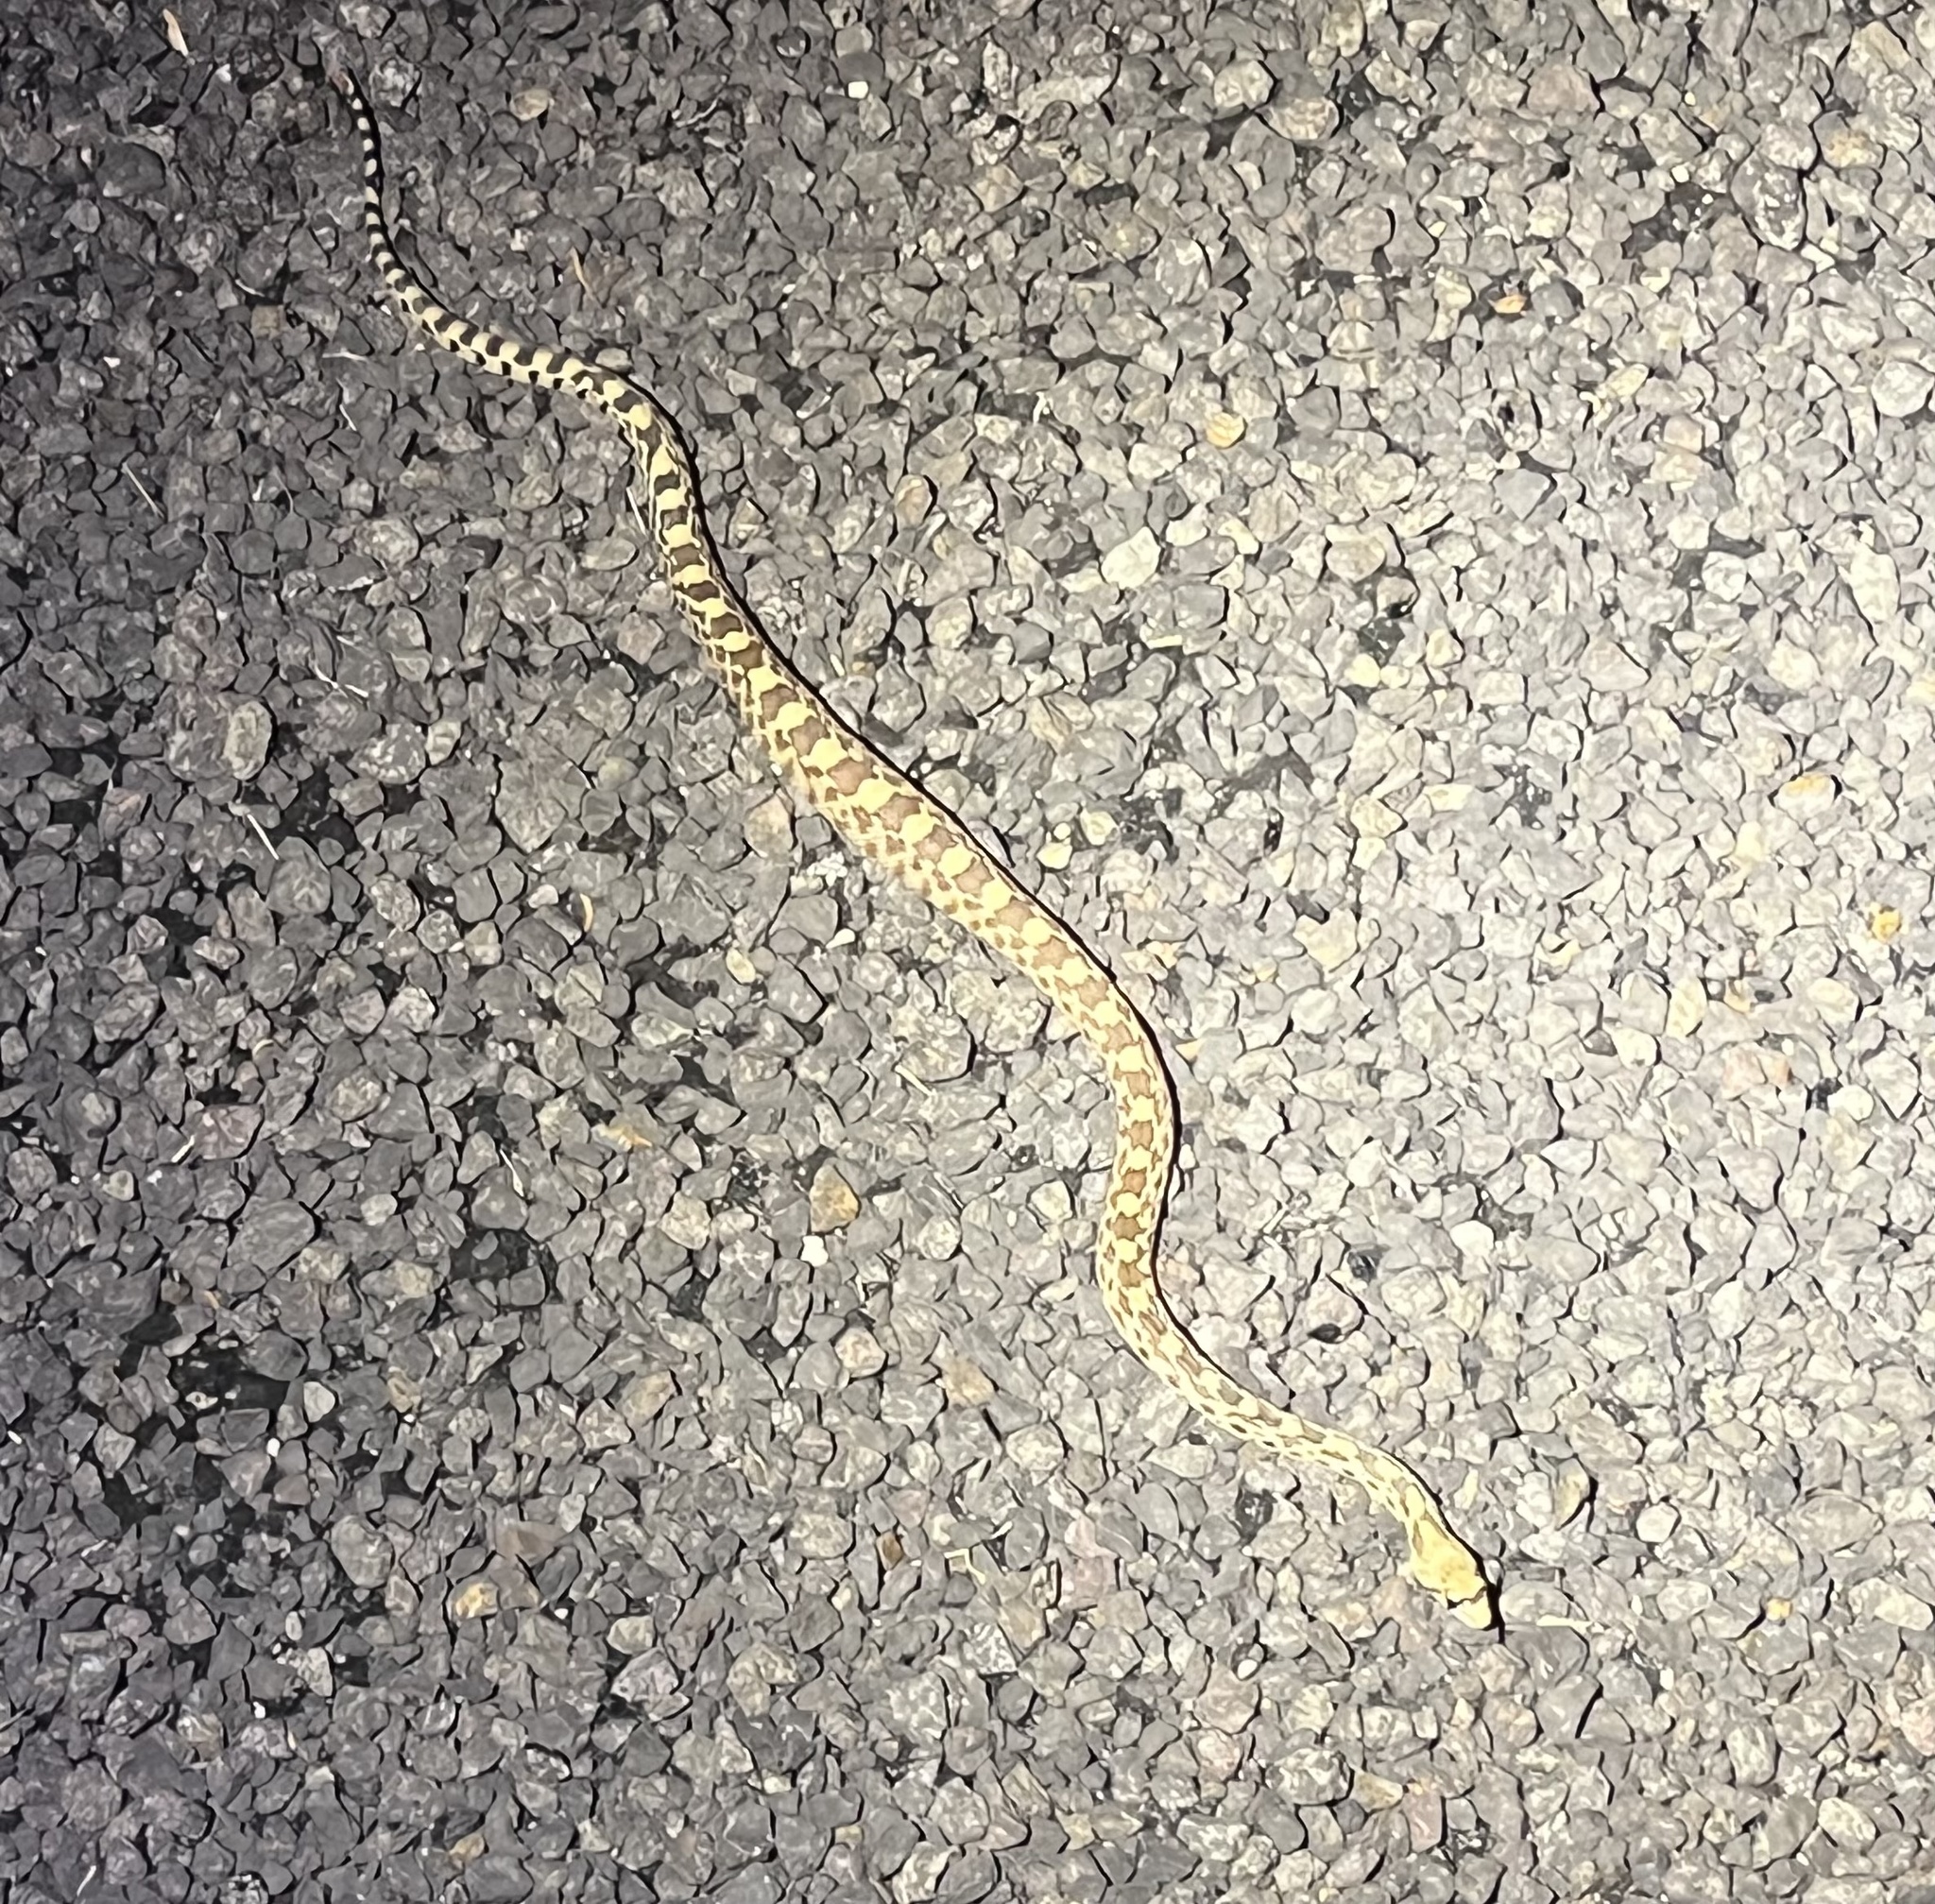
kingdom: Animalia
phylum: Chordata
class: Squamata
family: Colubridae
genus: Pituophis
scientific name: Pituophis catenifer
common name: Gopher snake
